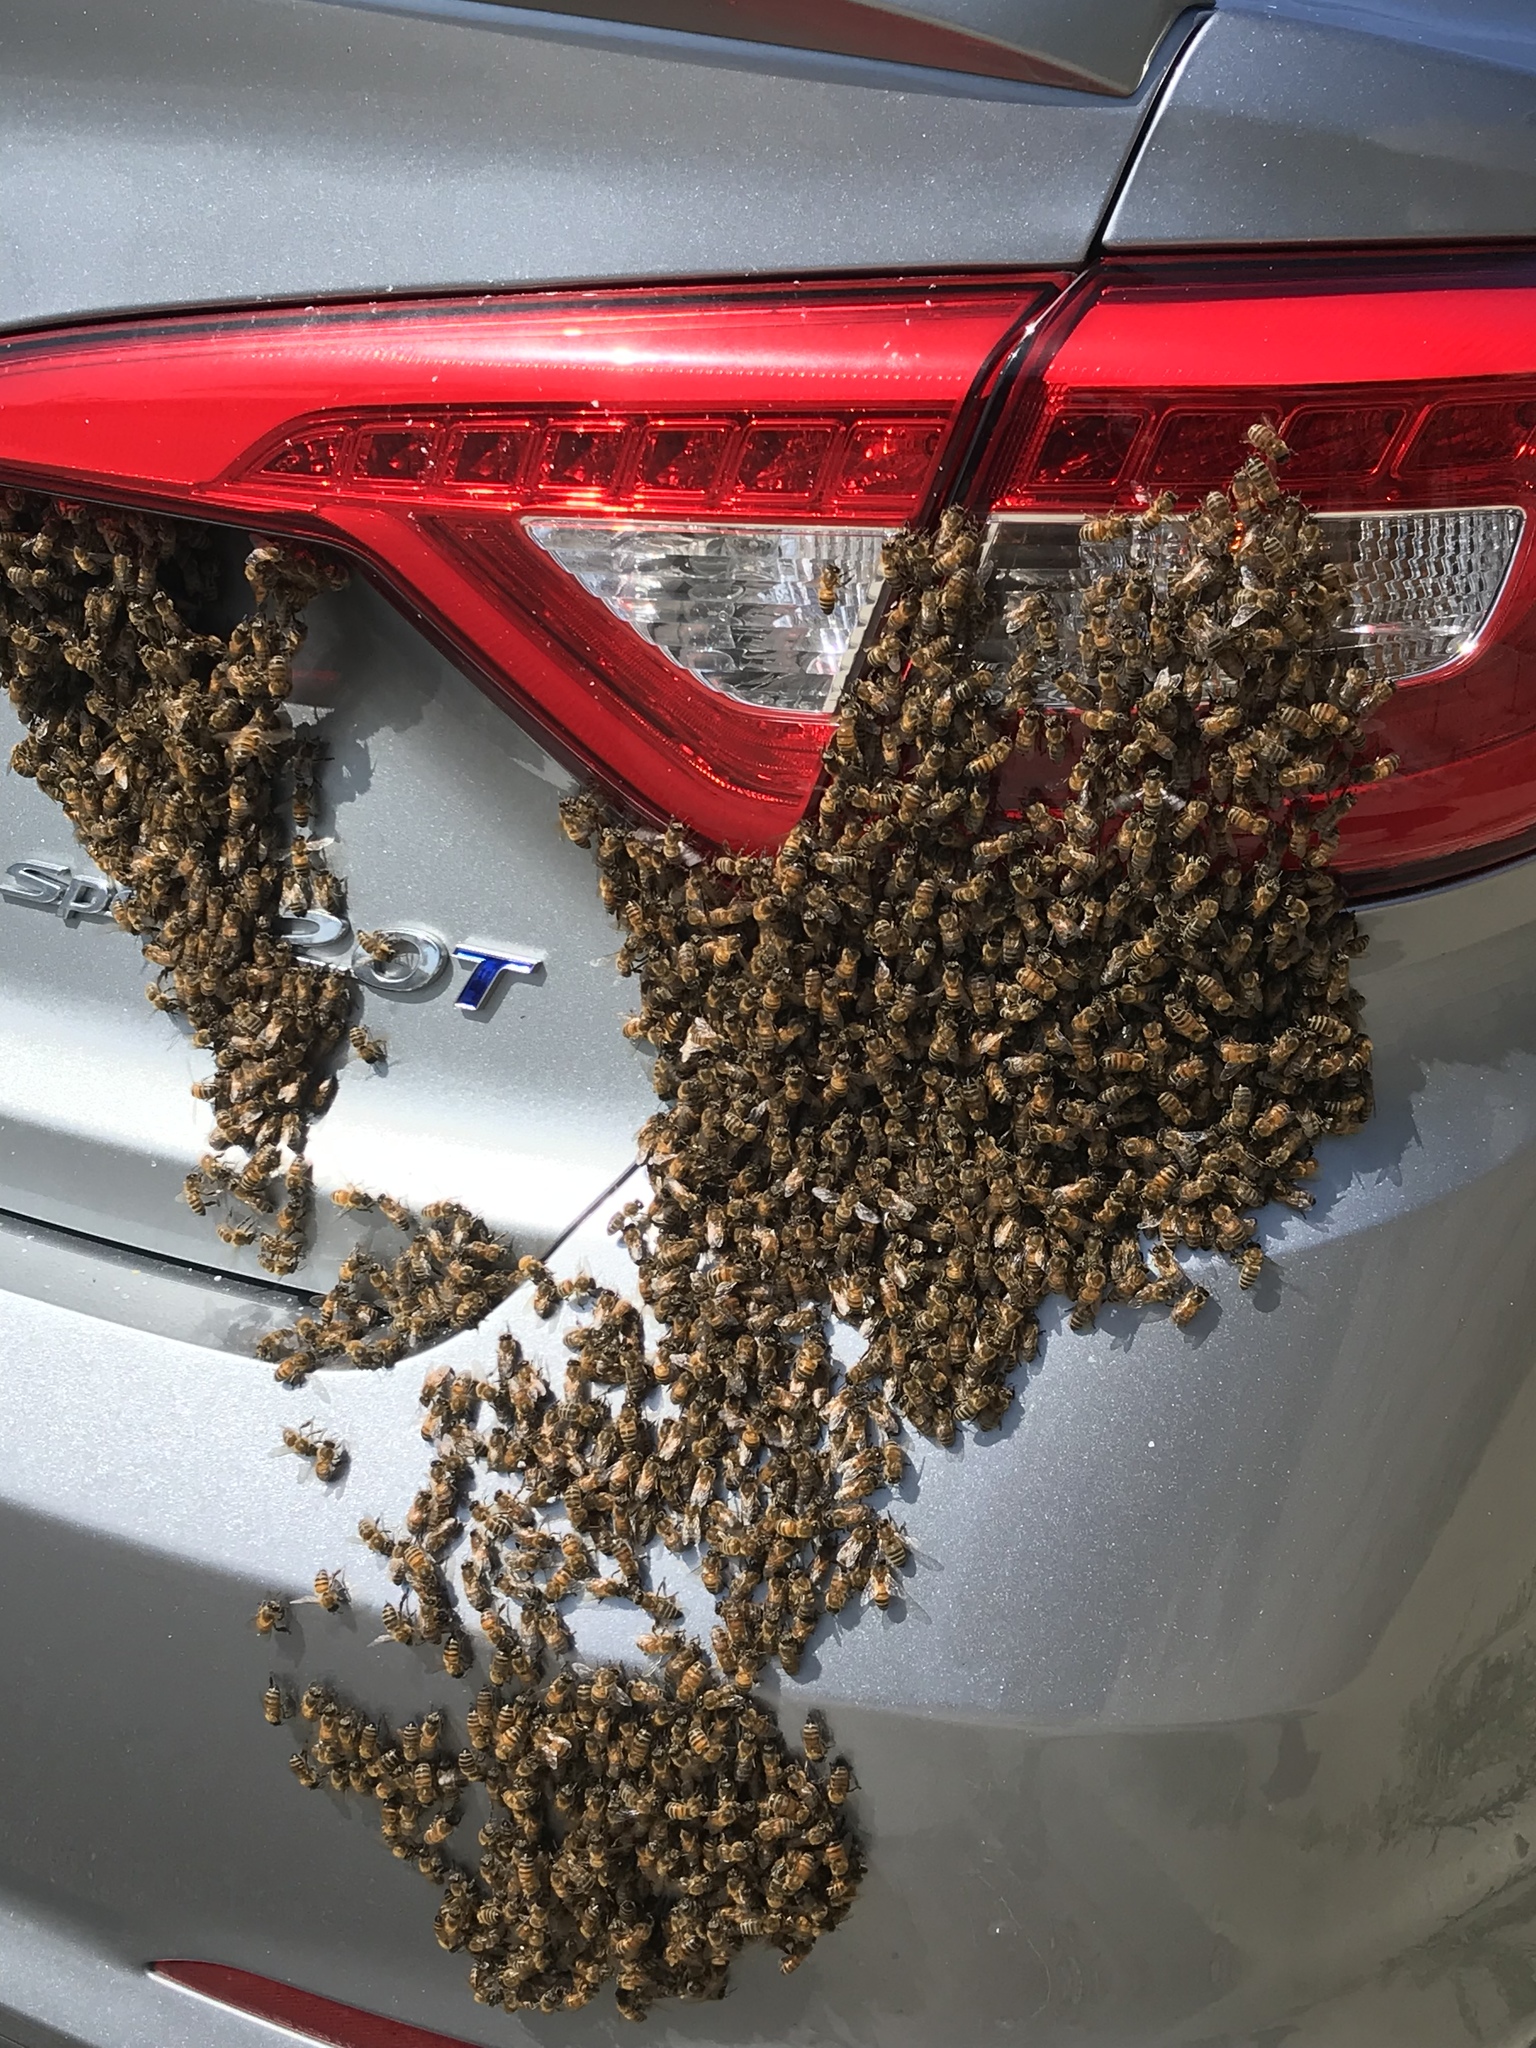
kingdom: Animalia
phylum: Arthropoda
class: Insecta
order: Hymenoptera
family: Apidae
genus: Apis
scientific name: Apis mellifera
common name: Honey bee
